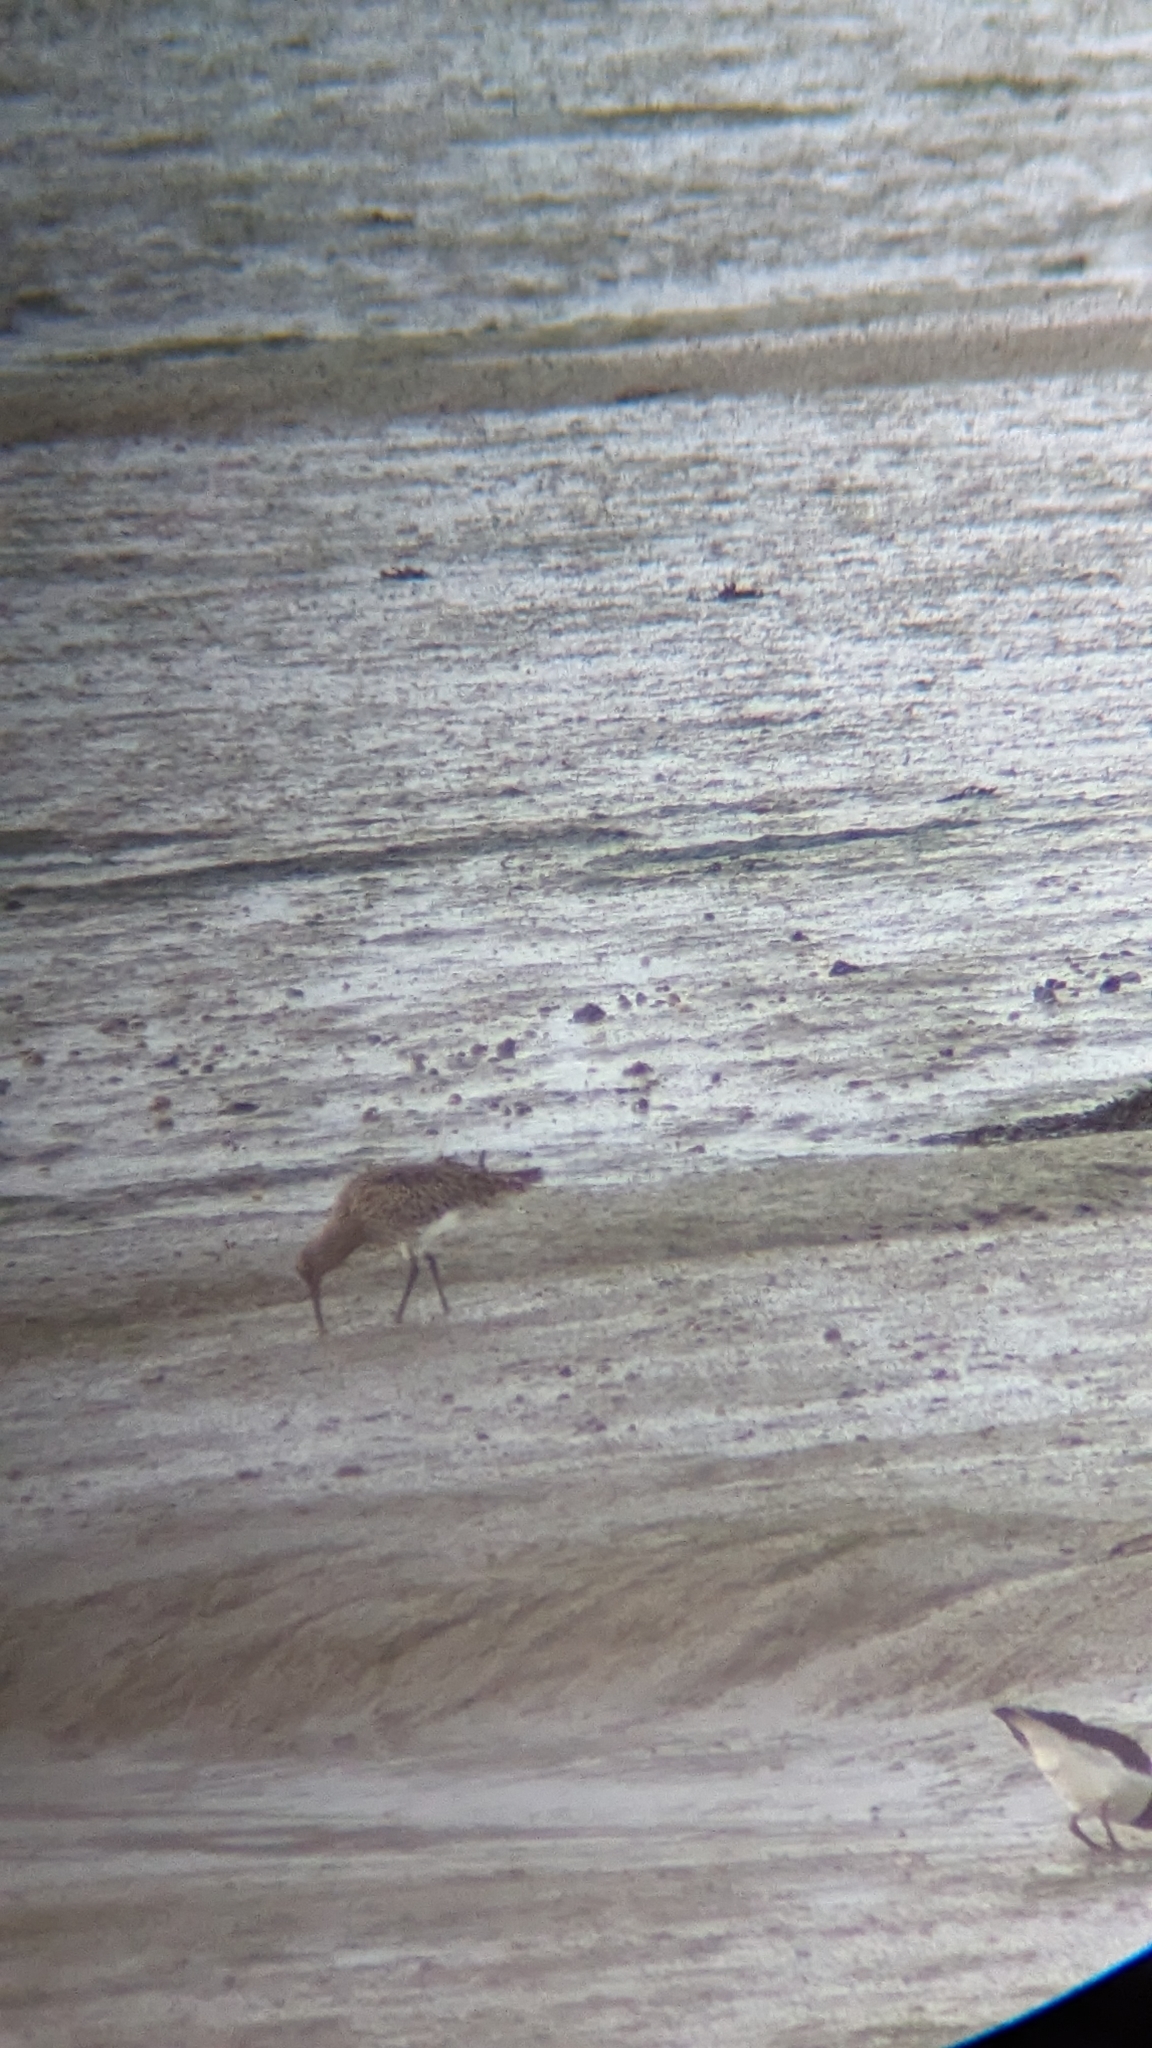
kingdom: Animalia
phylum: Chordata
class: Aves
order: Charadriiformes
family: Scolopacidae
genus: Numenius
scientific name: Numenius arquata
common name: Eurasian curlew
